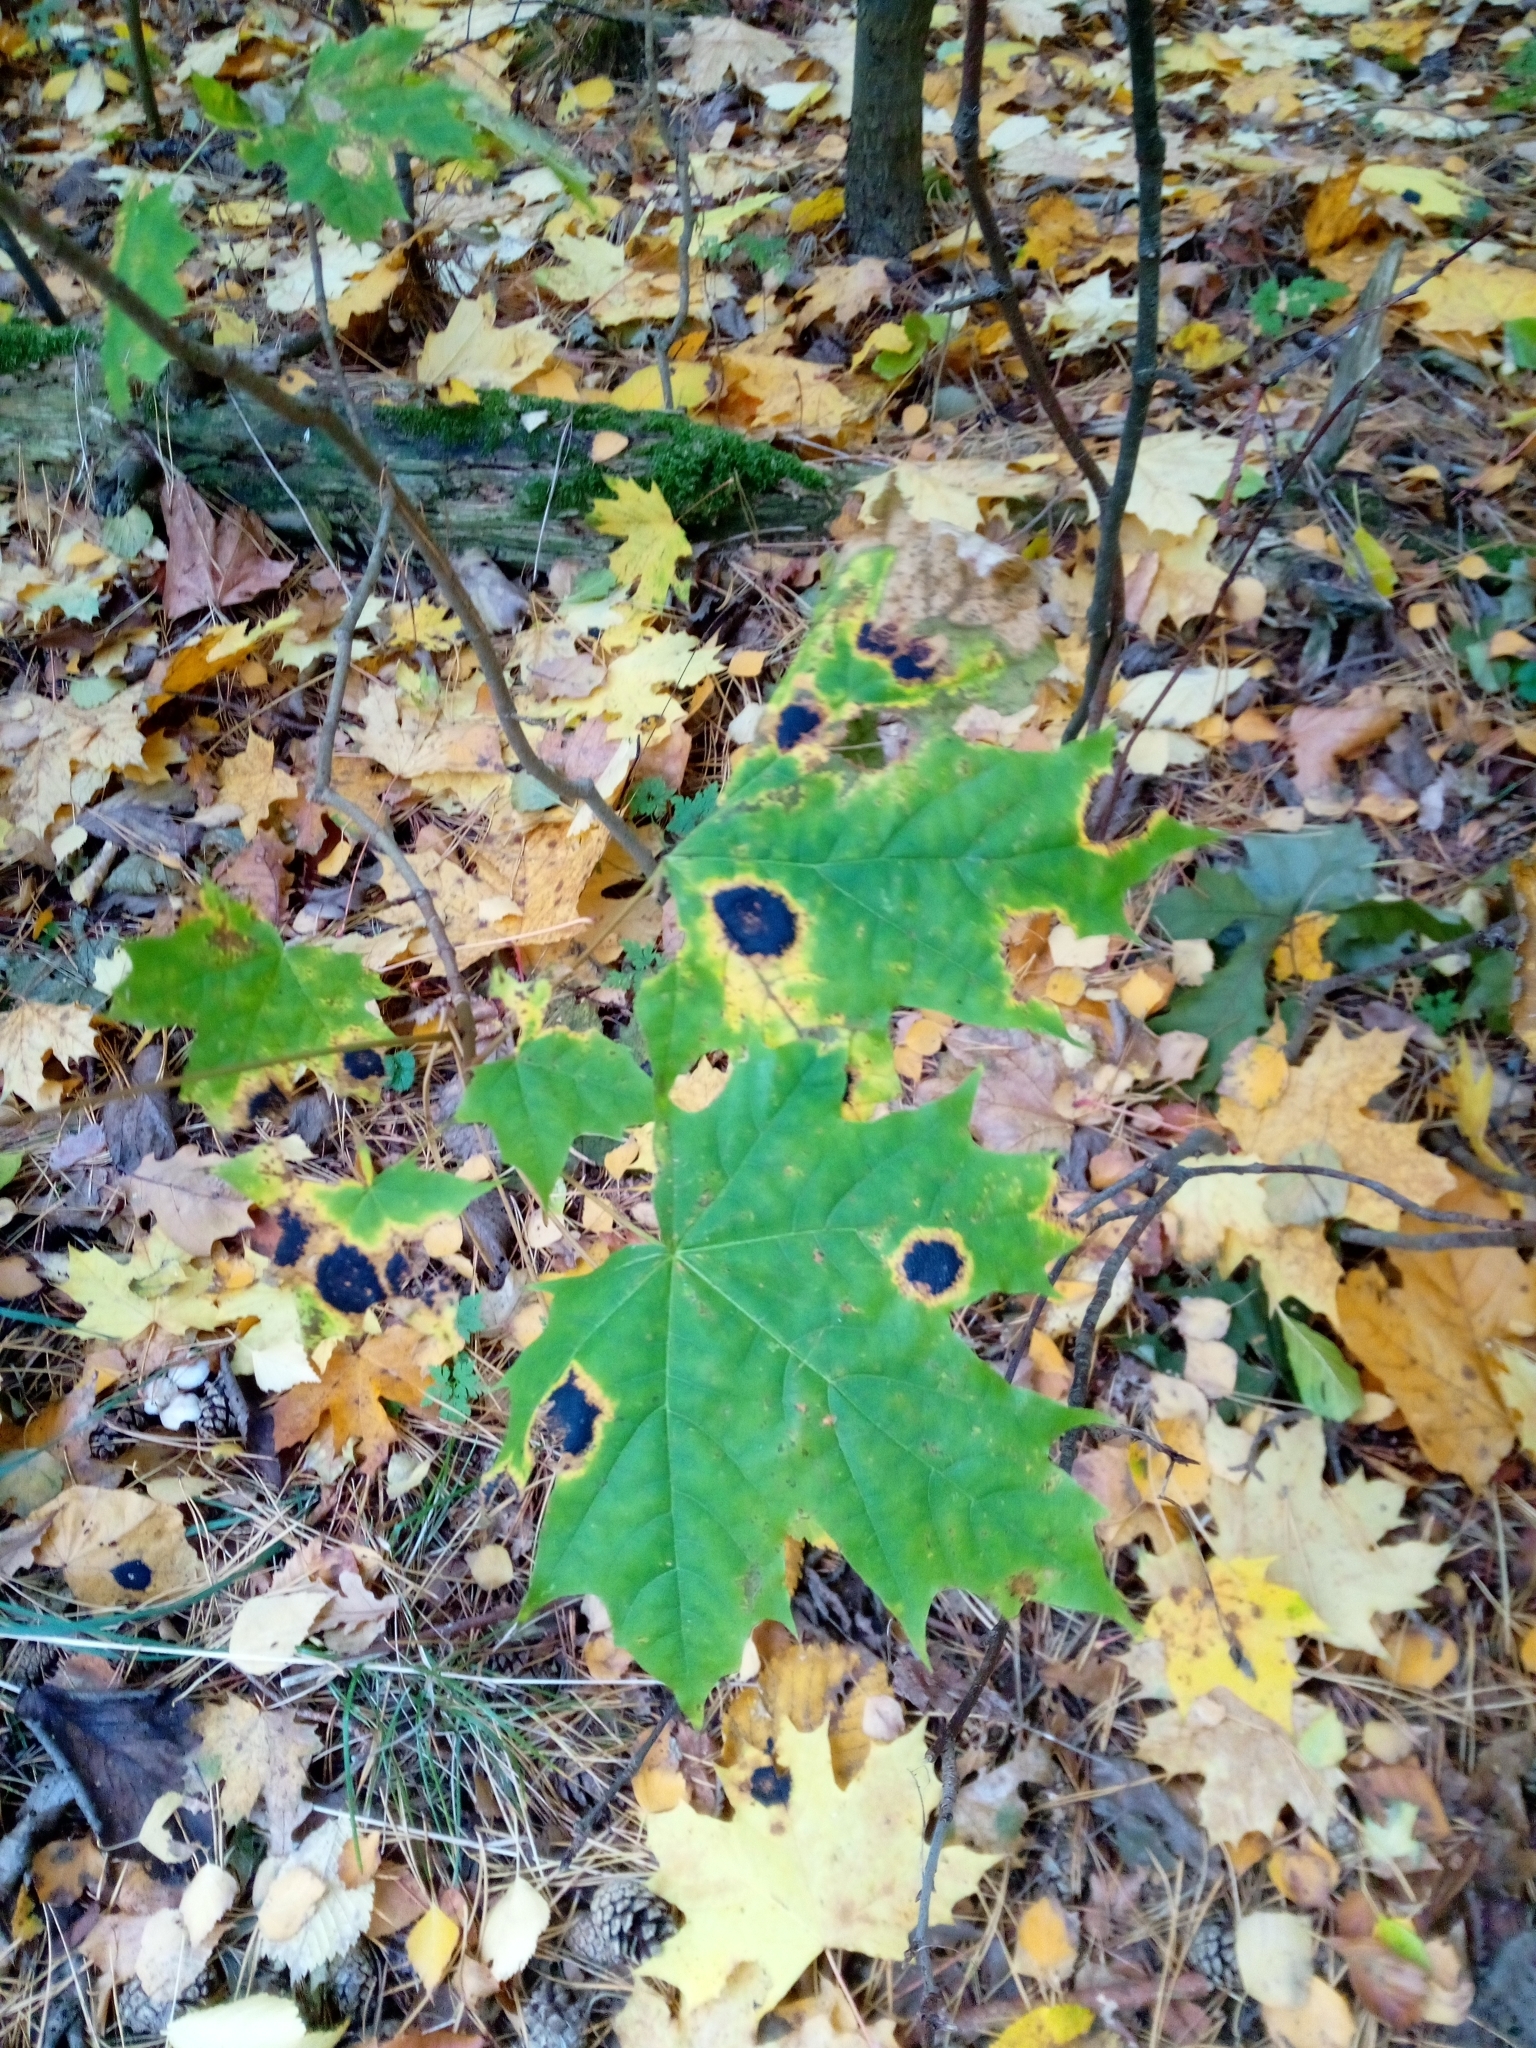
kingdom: Plantae
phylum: Tracheophyta
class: Magnoliopsida
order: Sapindales
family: Sapindaceae
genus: Acer
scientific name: Acer platanoides
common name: Norway maple
